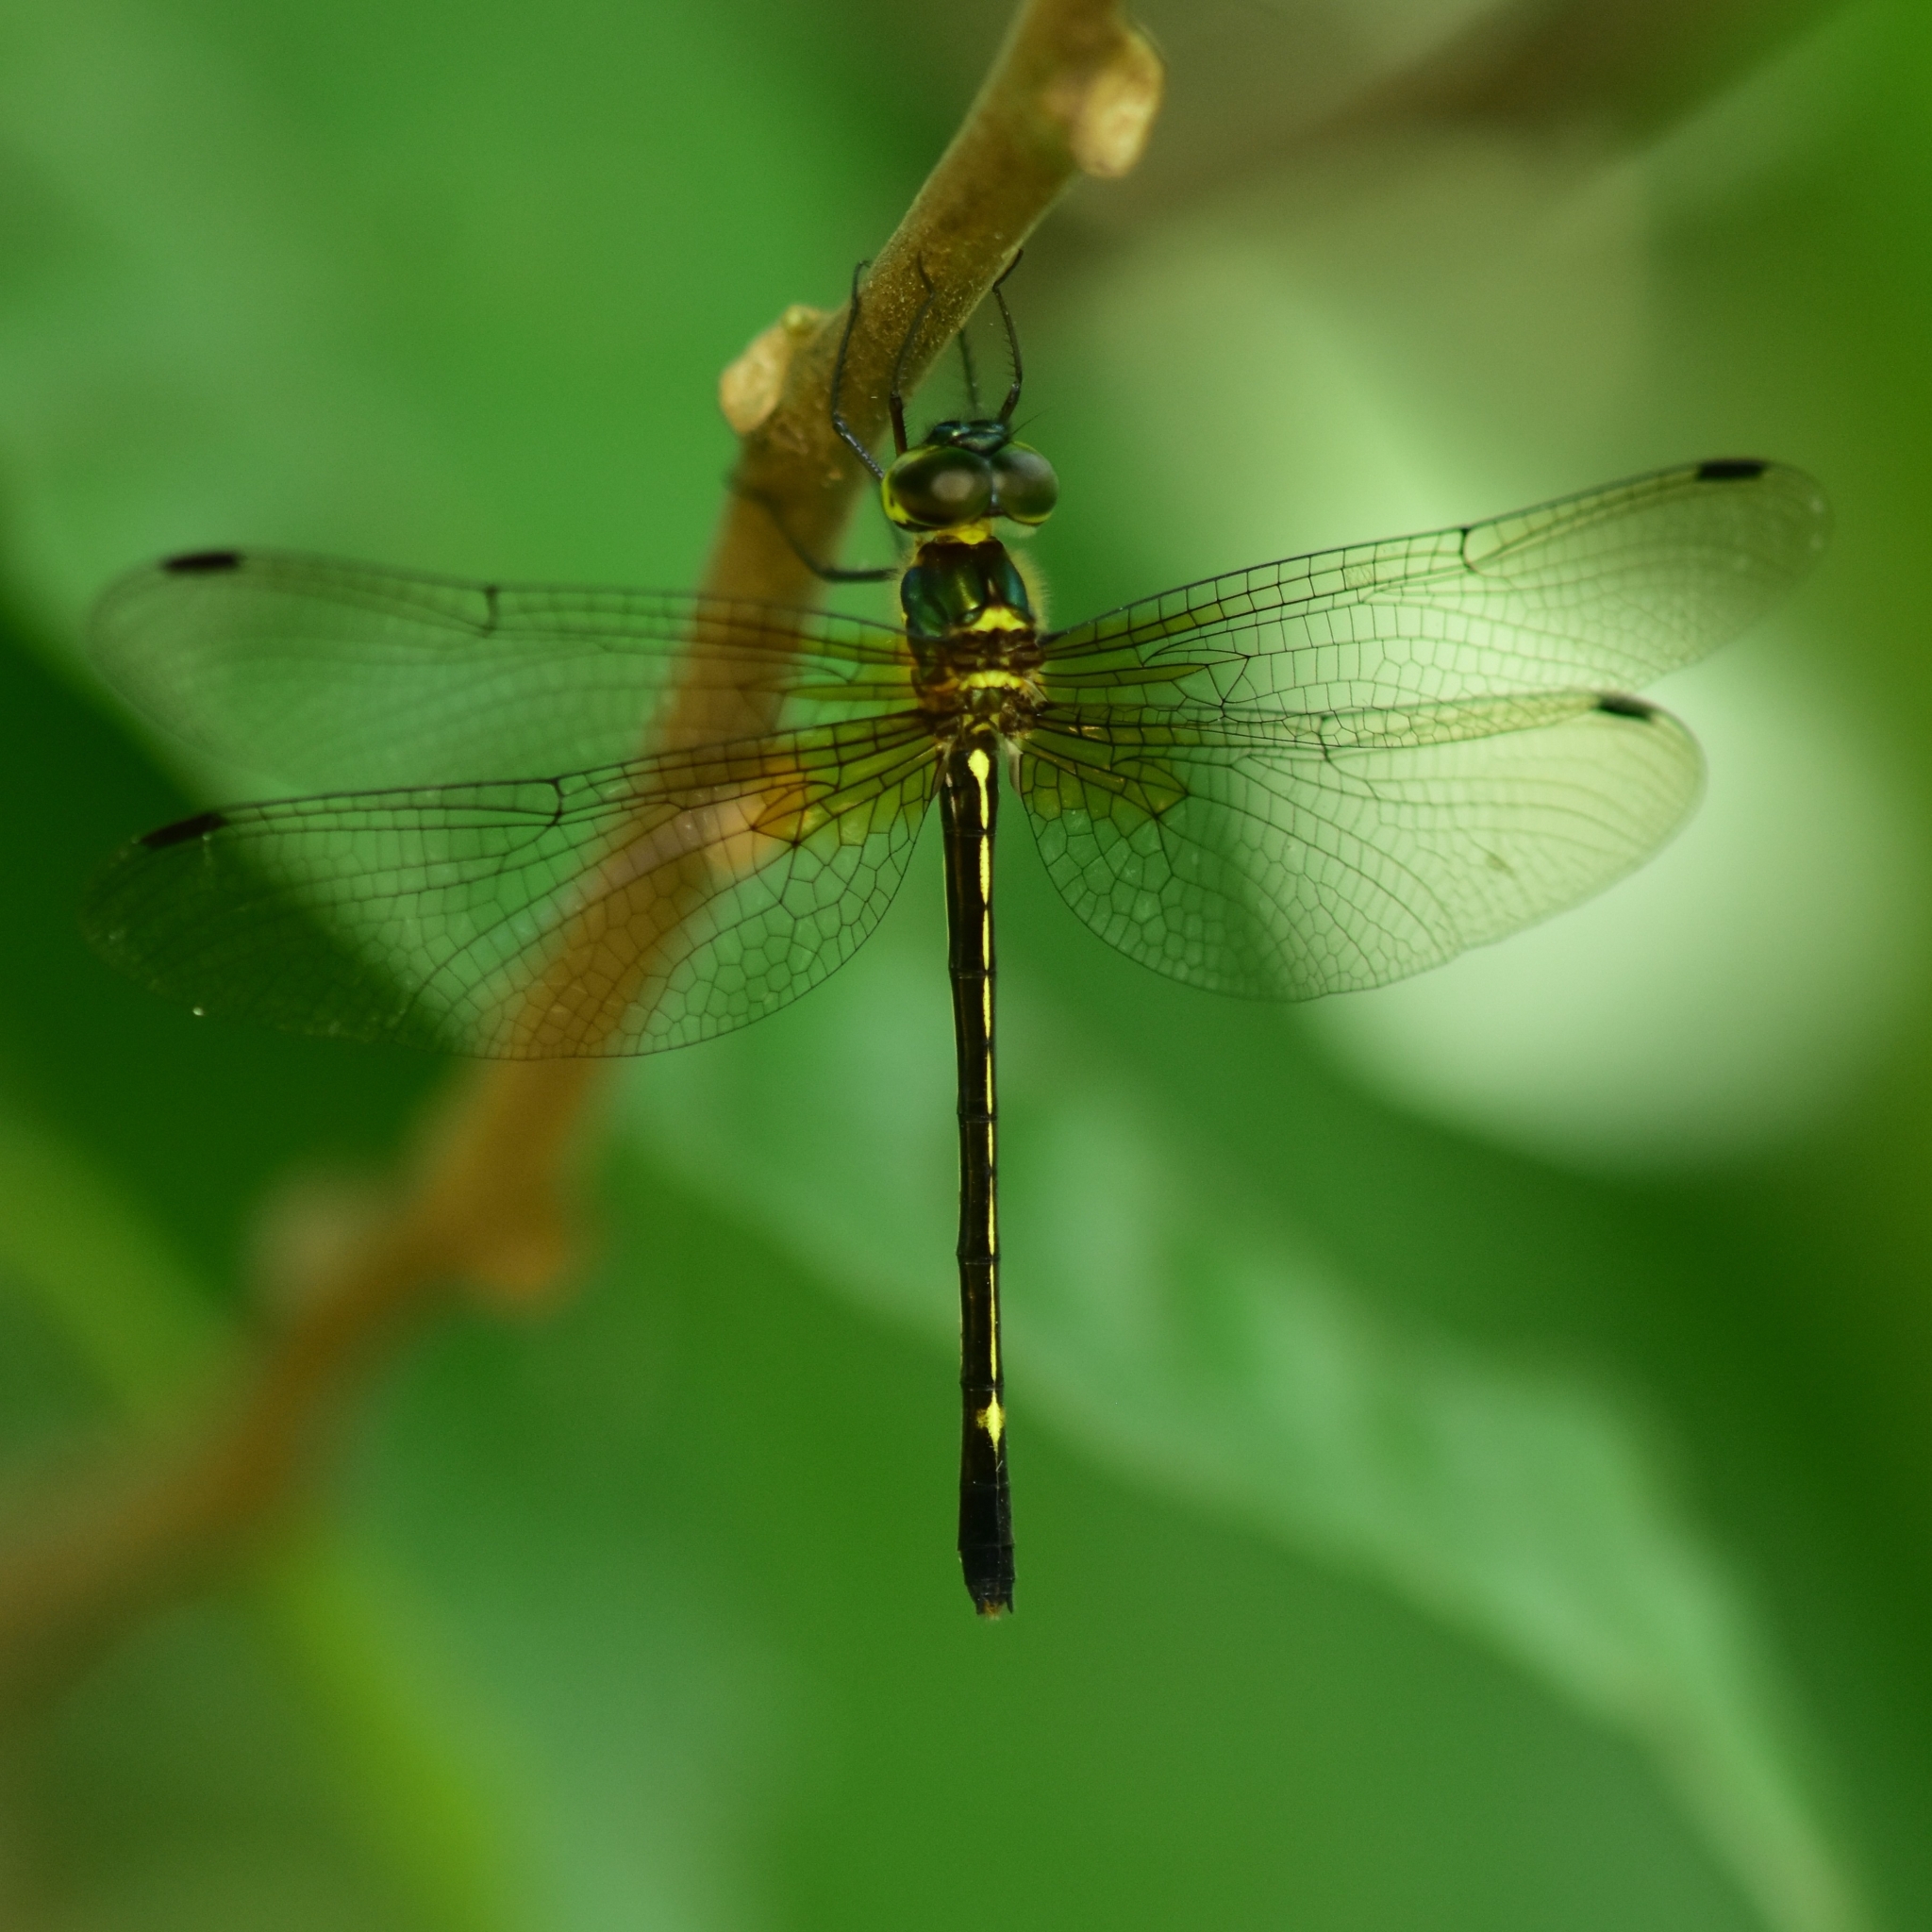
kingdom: Animalia
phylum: Arthropoda
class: Insecta
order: Odonata
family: Corduliidae
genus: Macromidia
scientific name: Macromidia donaldi
